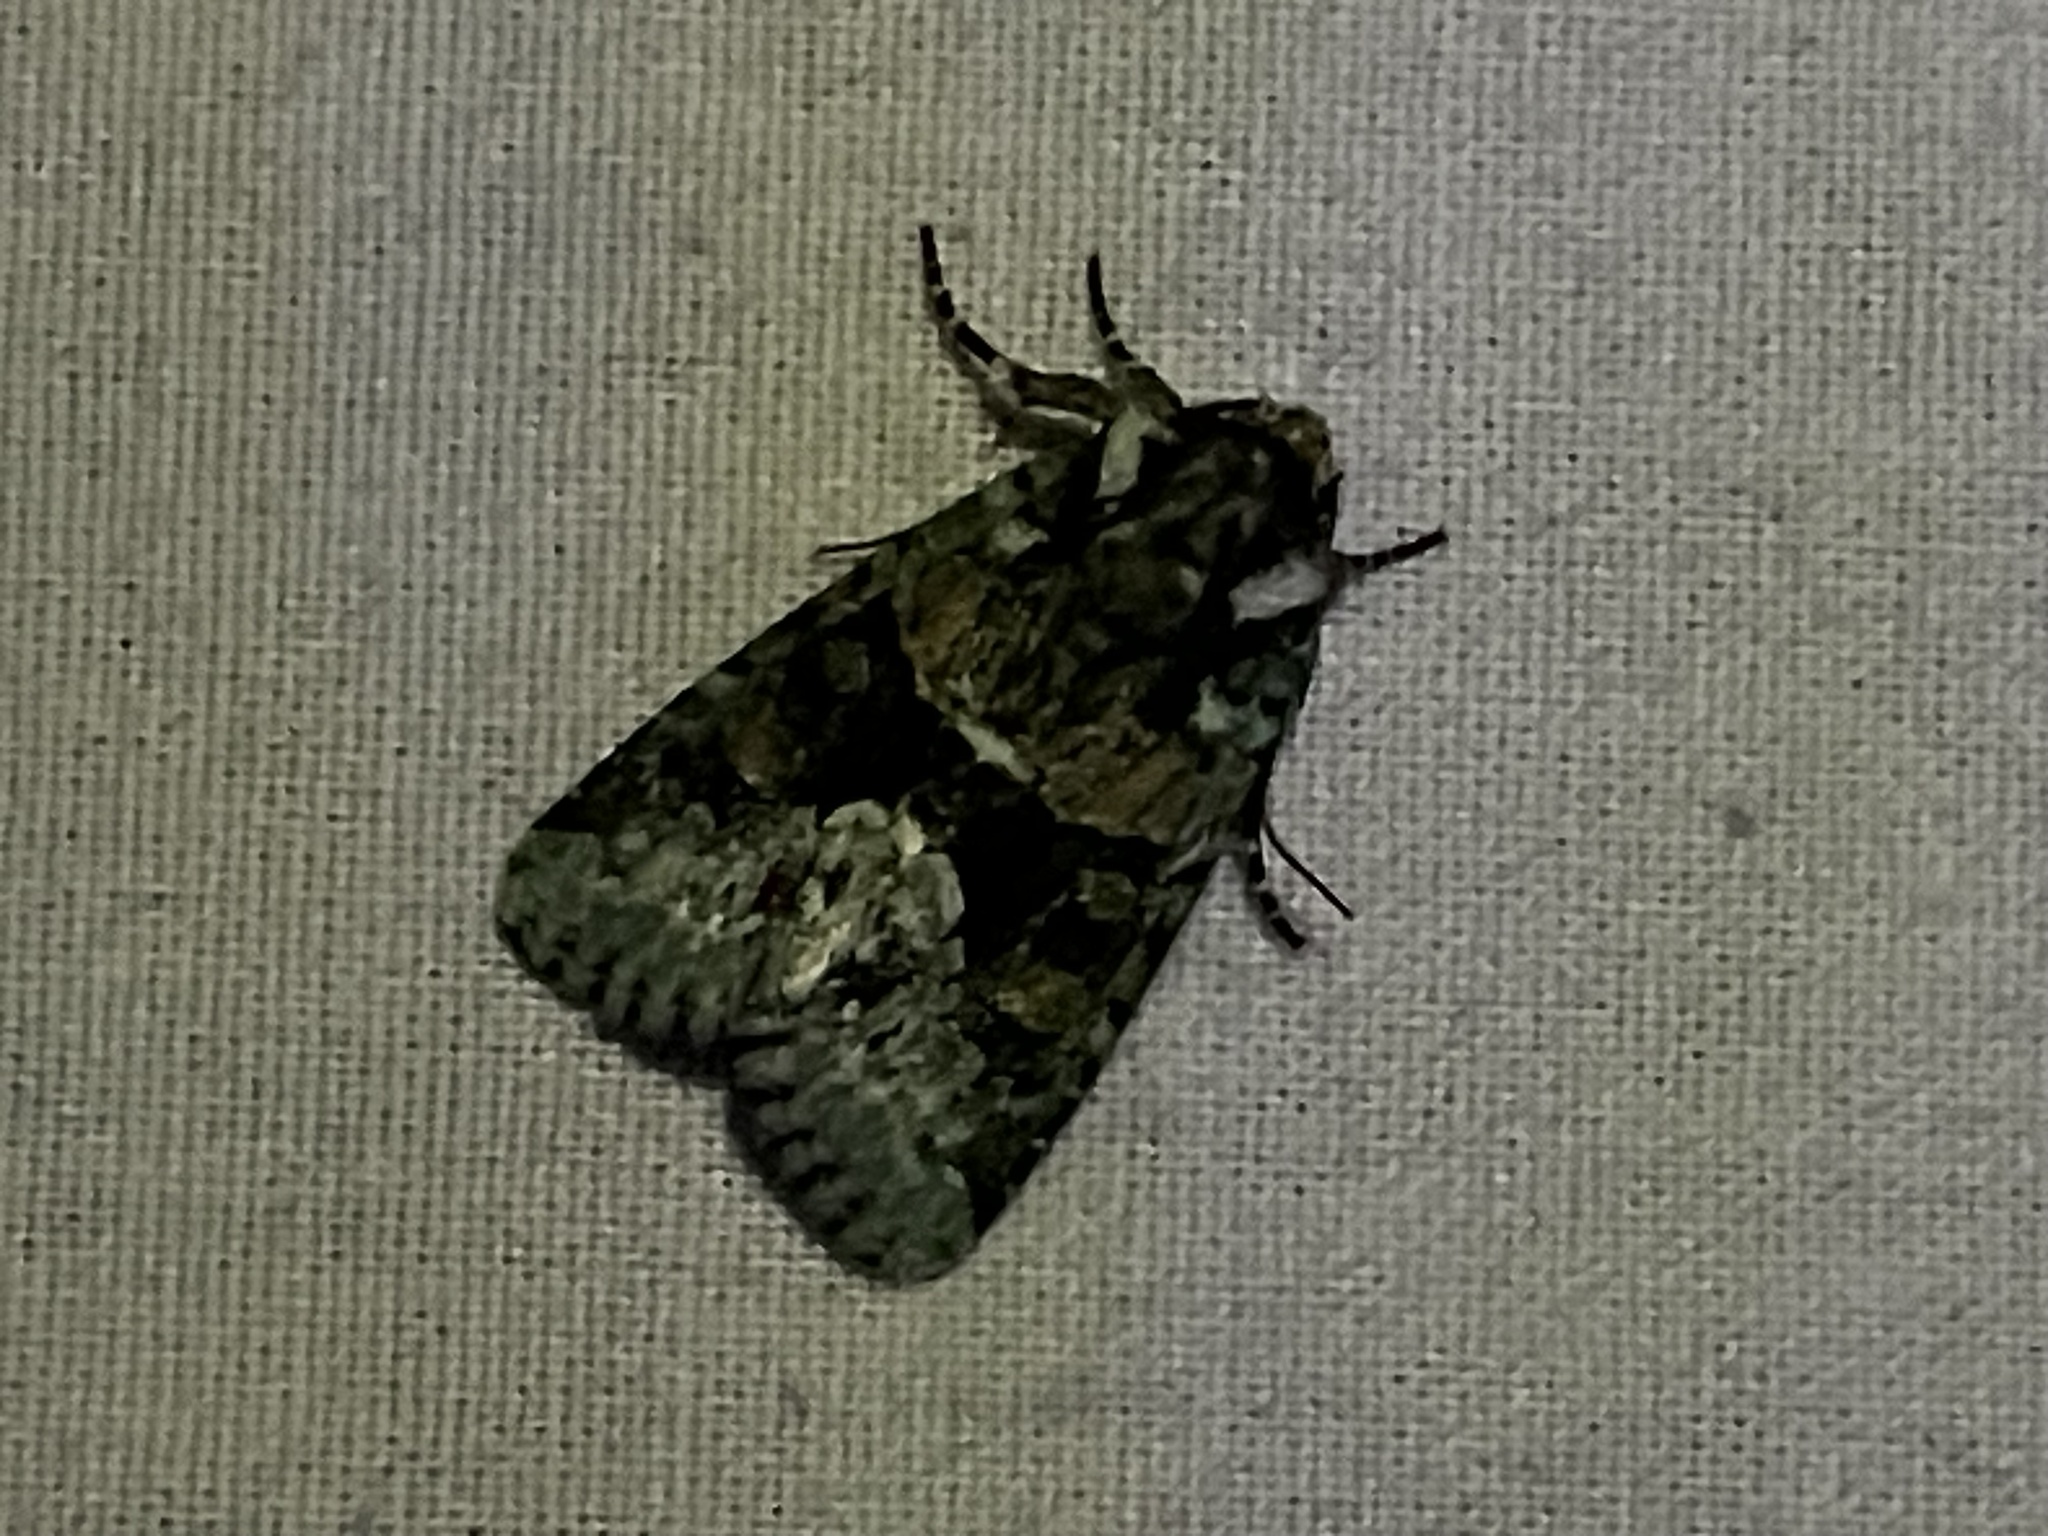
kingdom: Animalia
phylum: Arthropoda
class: Insecta
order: Lepidoptera
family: Noctuidae
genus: Lacinipolia
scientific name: Lacinipolia explicata
